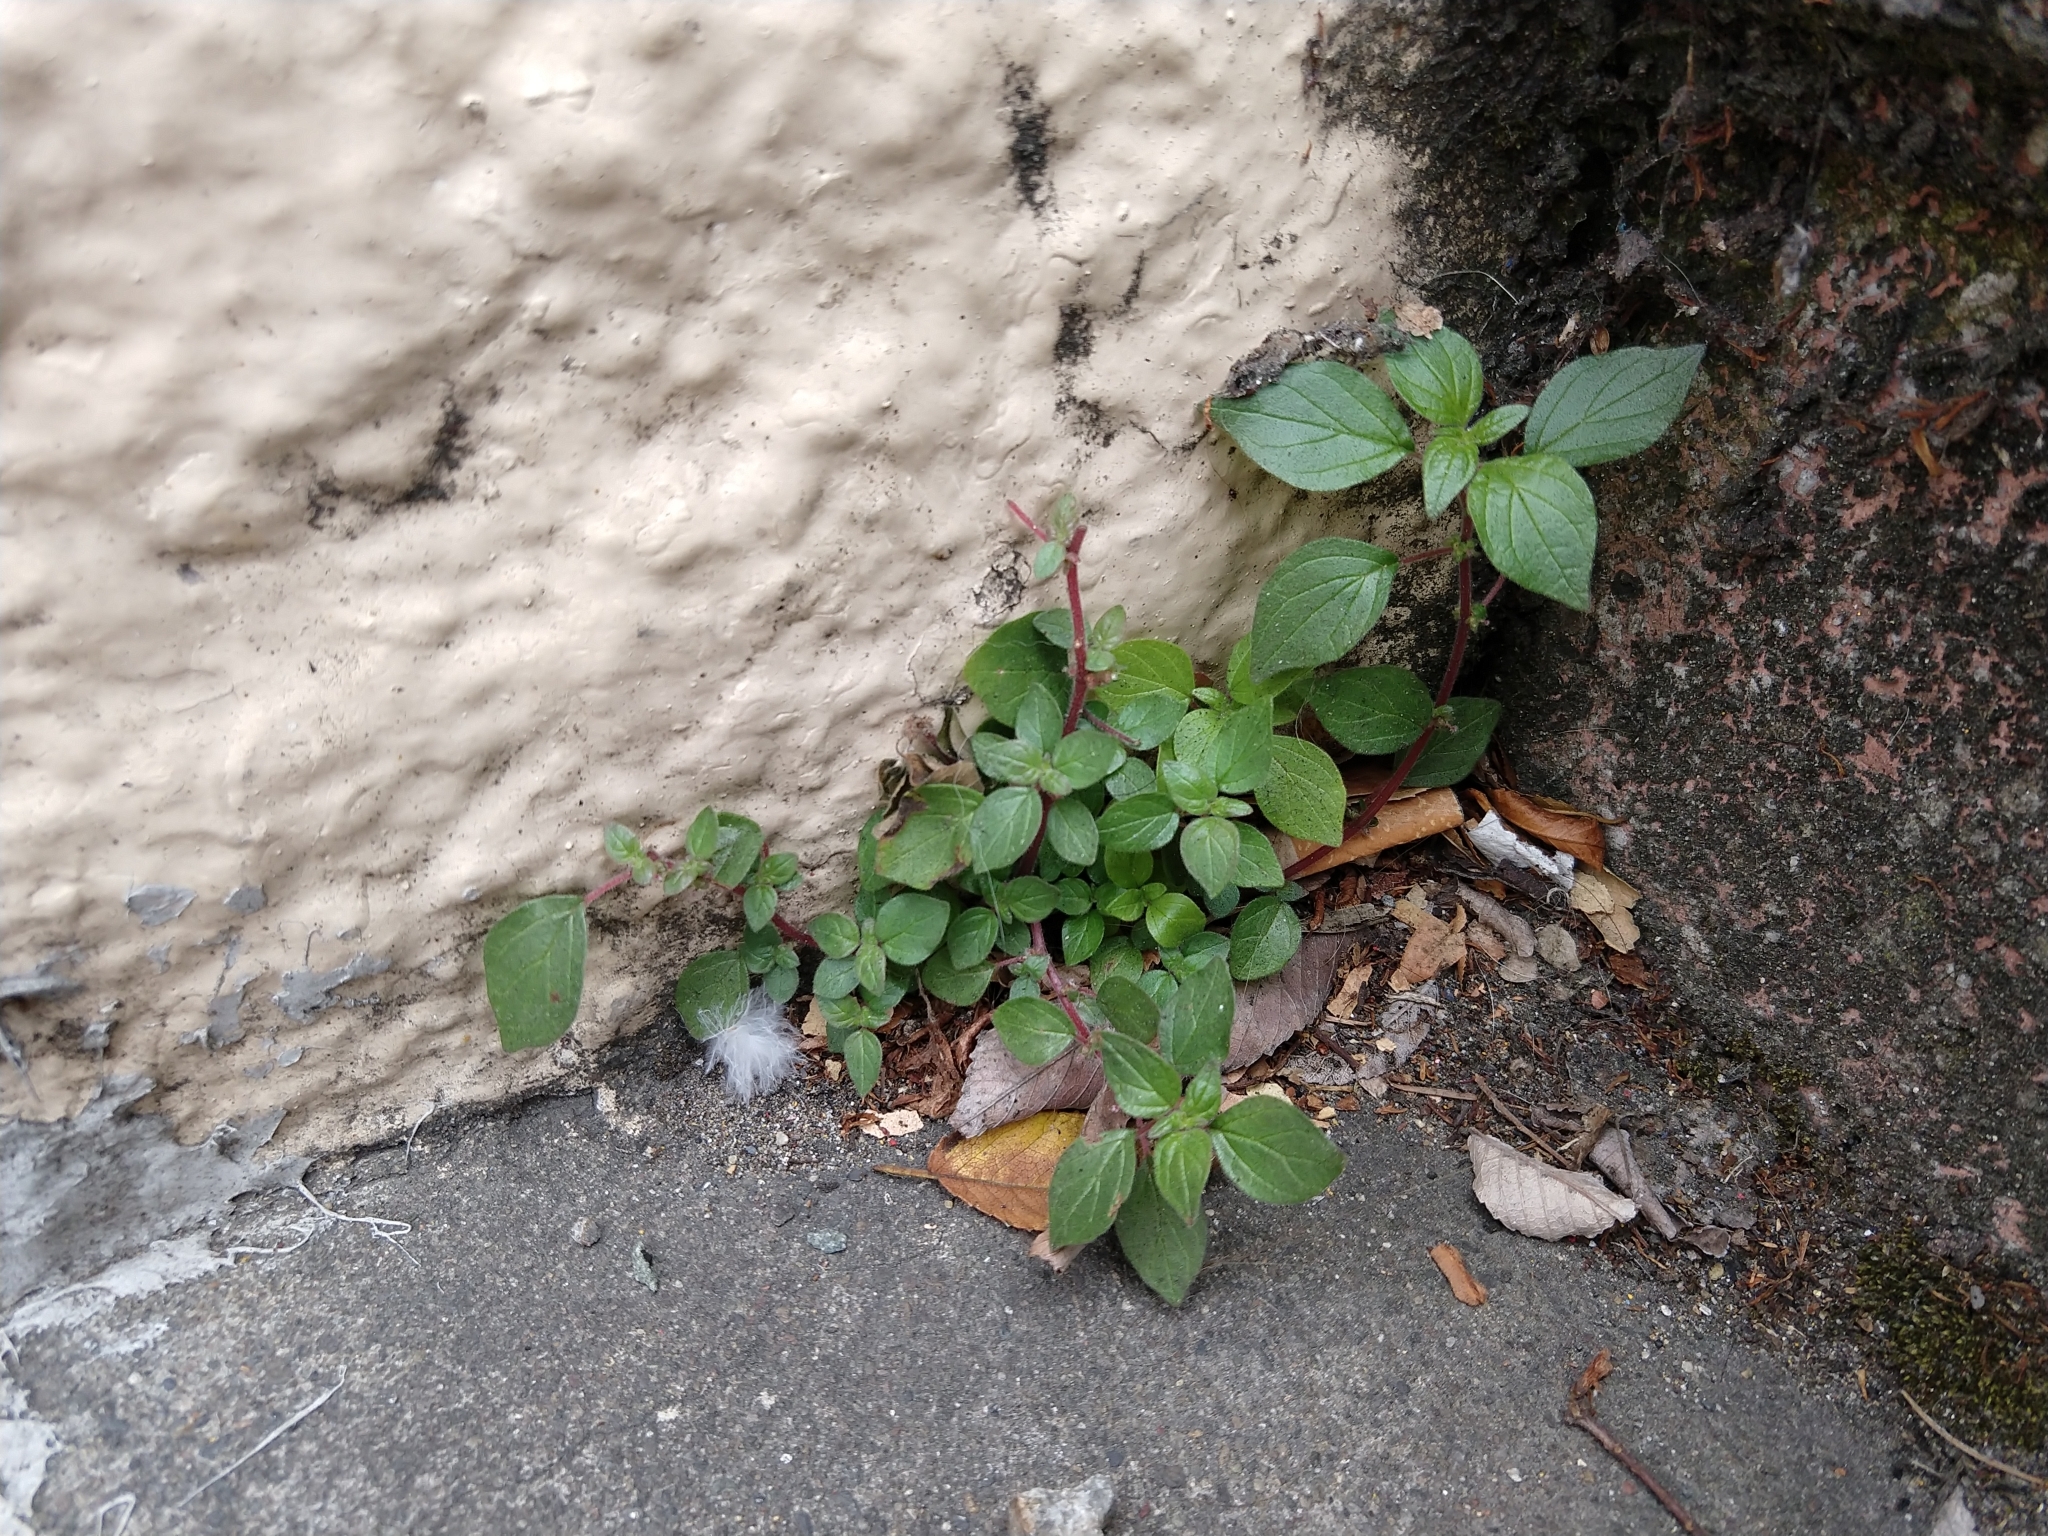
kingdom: Plantae
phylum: Tracheophyta
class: Magnoliopsida
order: Rosales
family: Urticaceae
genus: Parietaria
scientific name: Parietaria judaica
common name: Pellitory-of-the-wall
